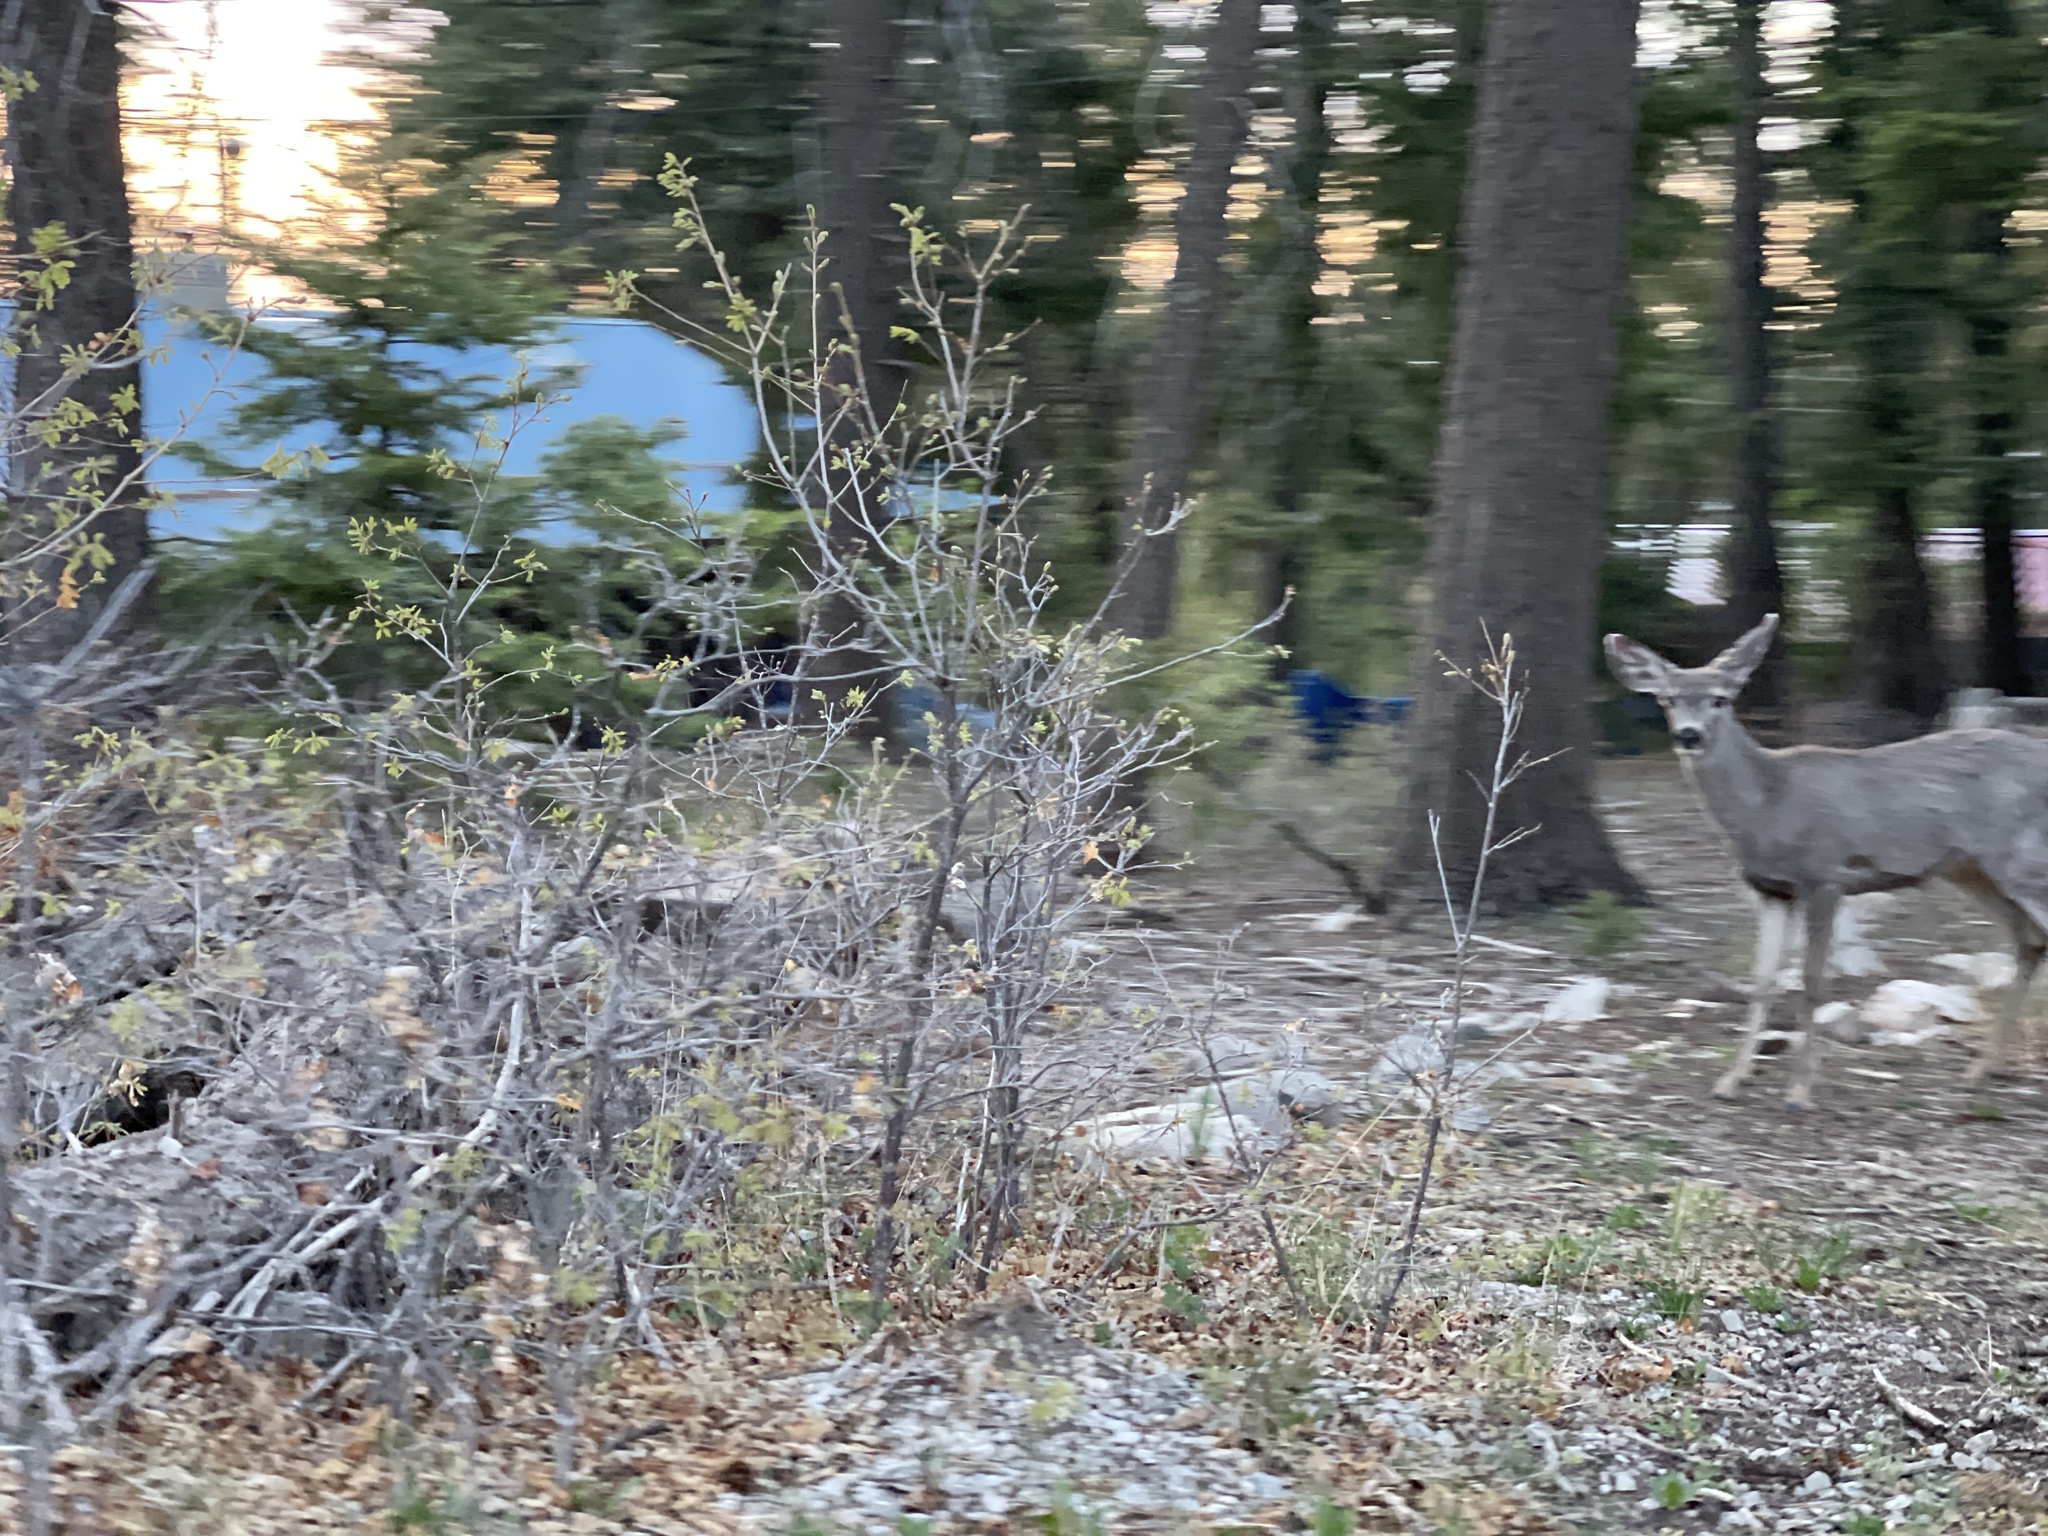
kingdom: Animalia
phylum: Chordata
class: Mammalia
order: Artiodactyla
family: Cervidae
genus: Odocoileus
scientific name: Odocoileus hemionus
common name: Mule deer
